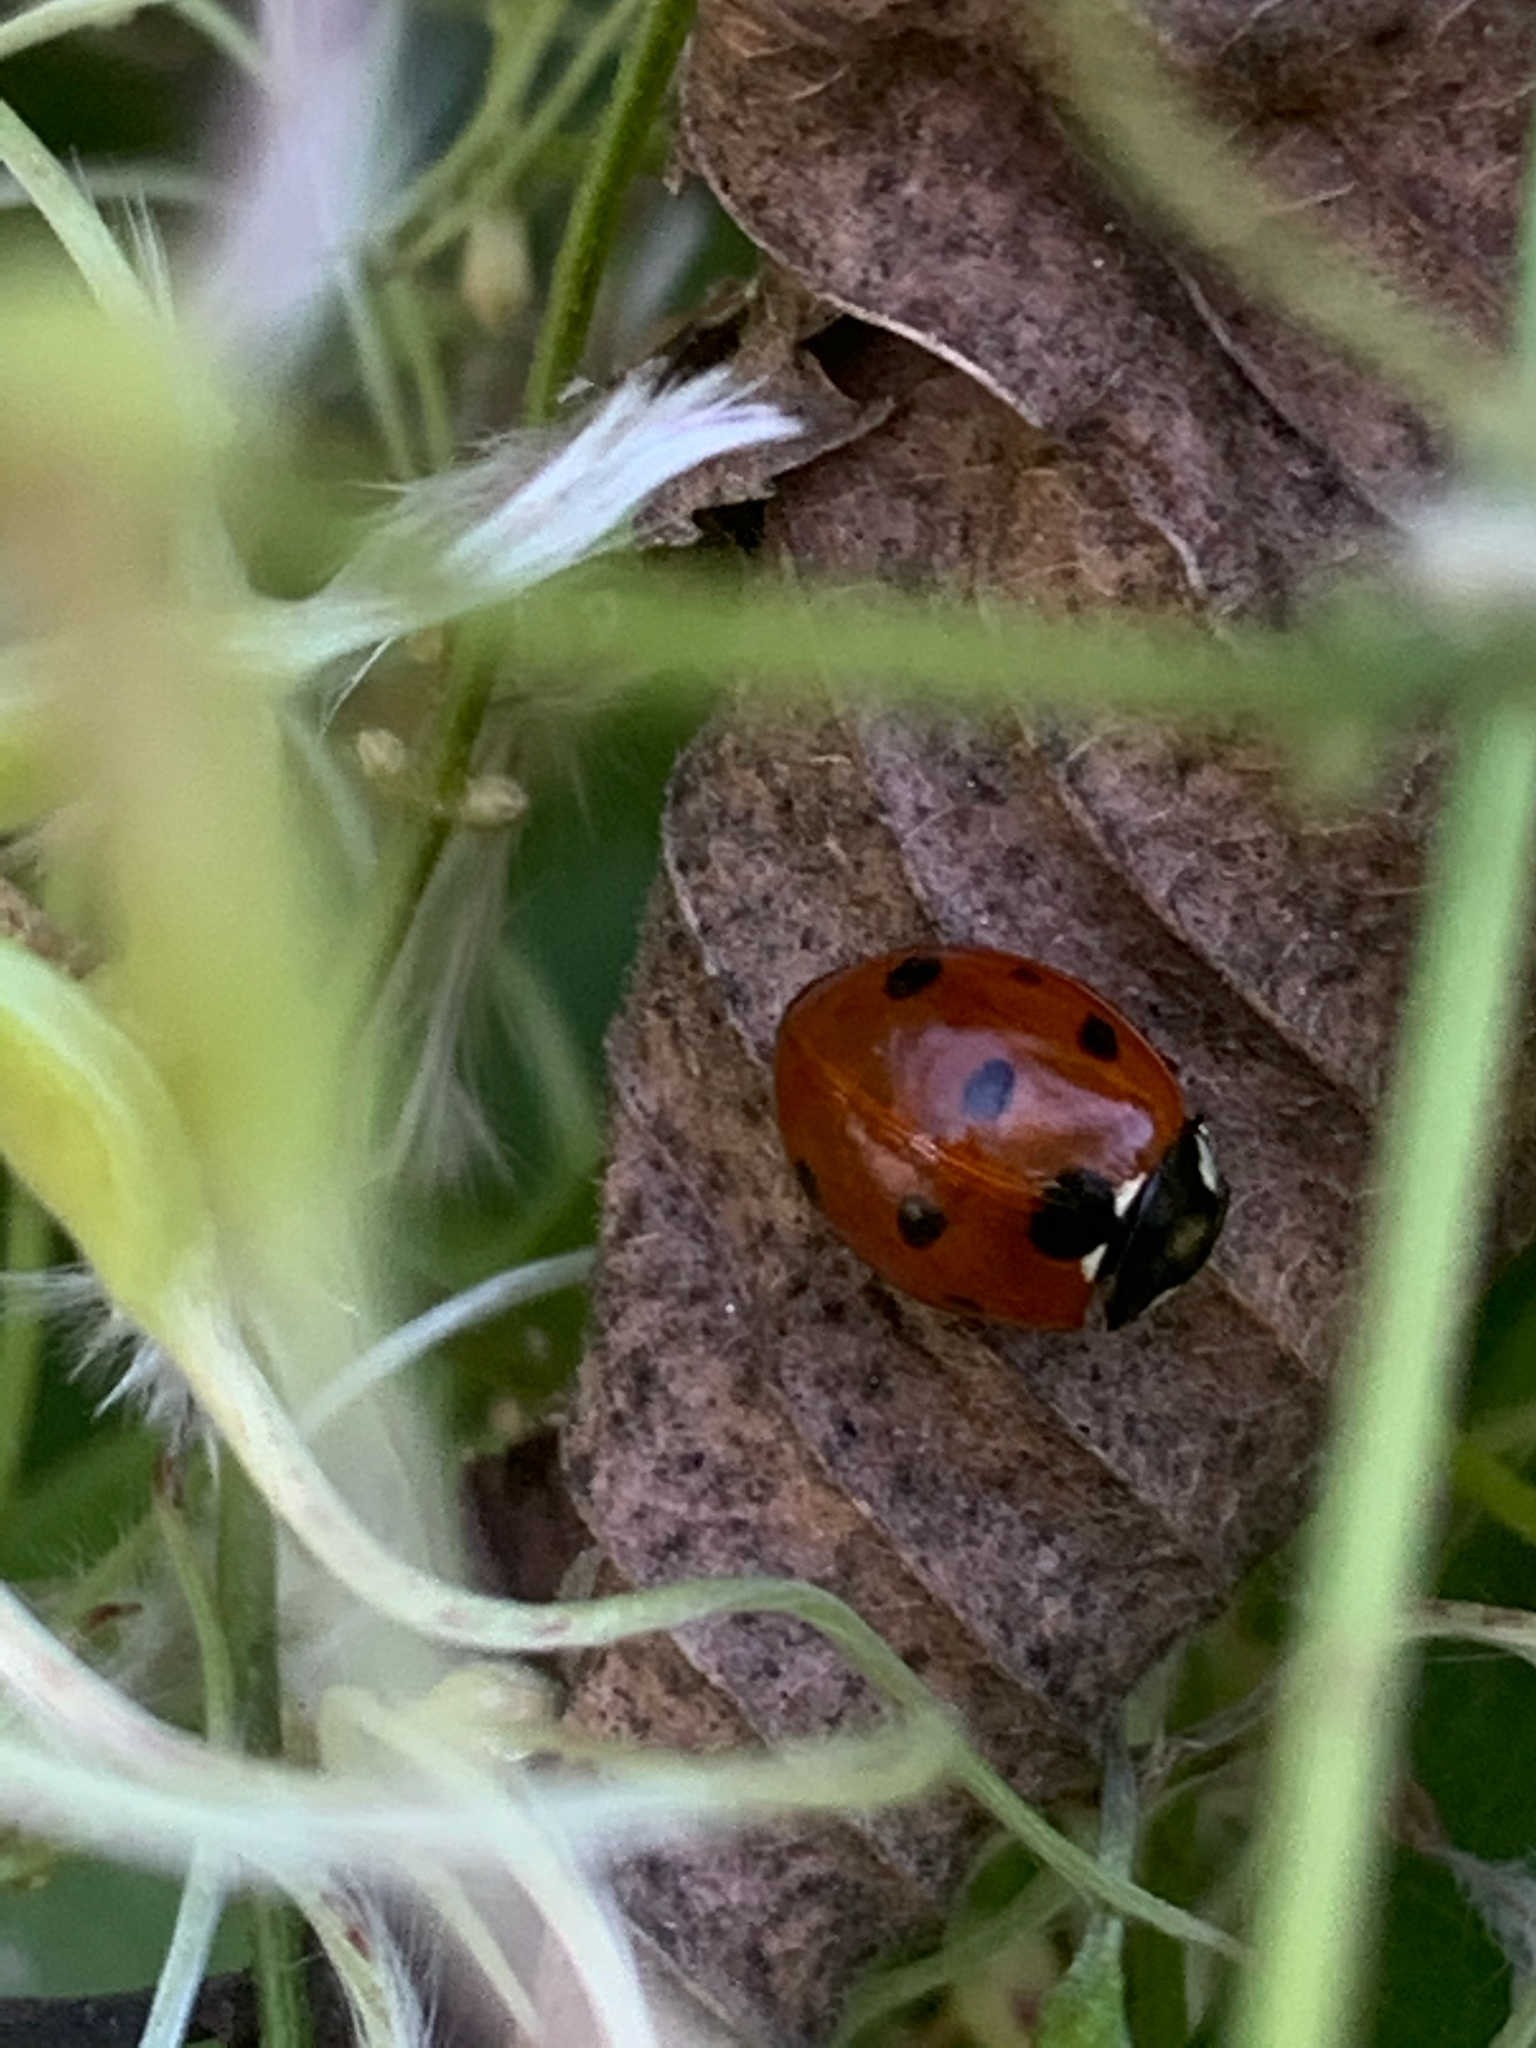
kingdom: Animalia
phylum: Arthropoda
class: Insecta
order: Coleoptera
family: Coccinellidae
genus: Coccinella
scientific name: Coccinella septempunctata
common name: Sevenspotted lady beetle
